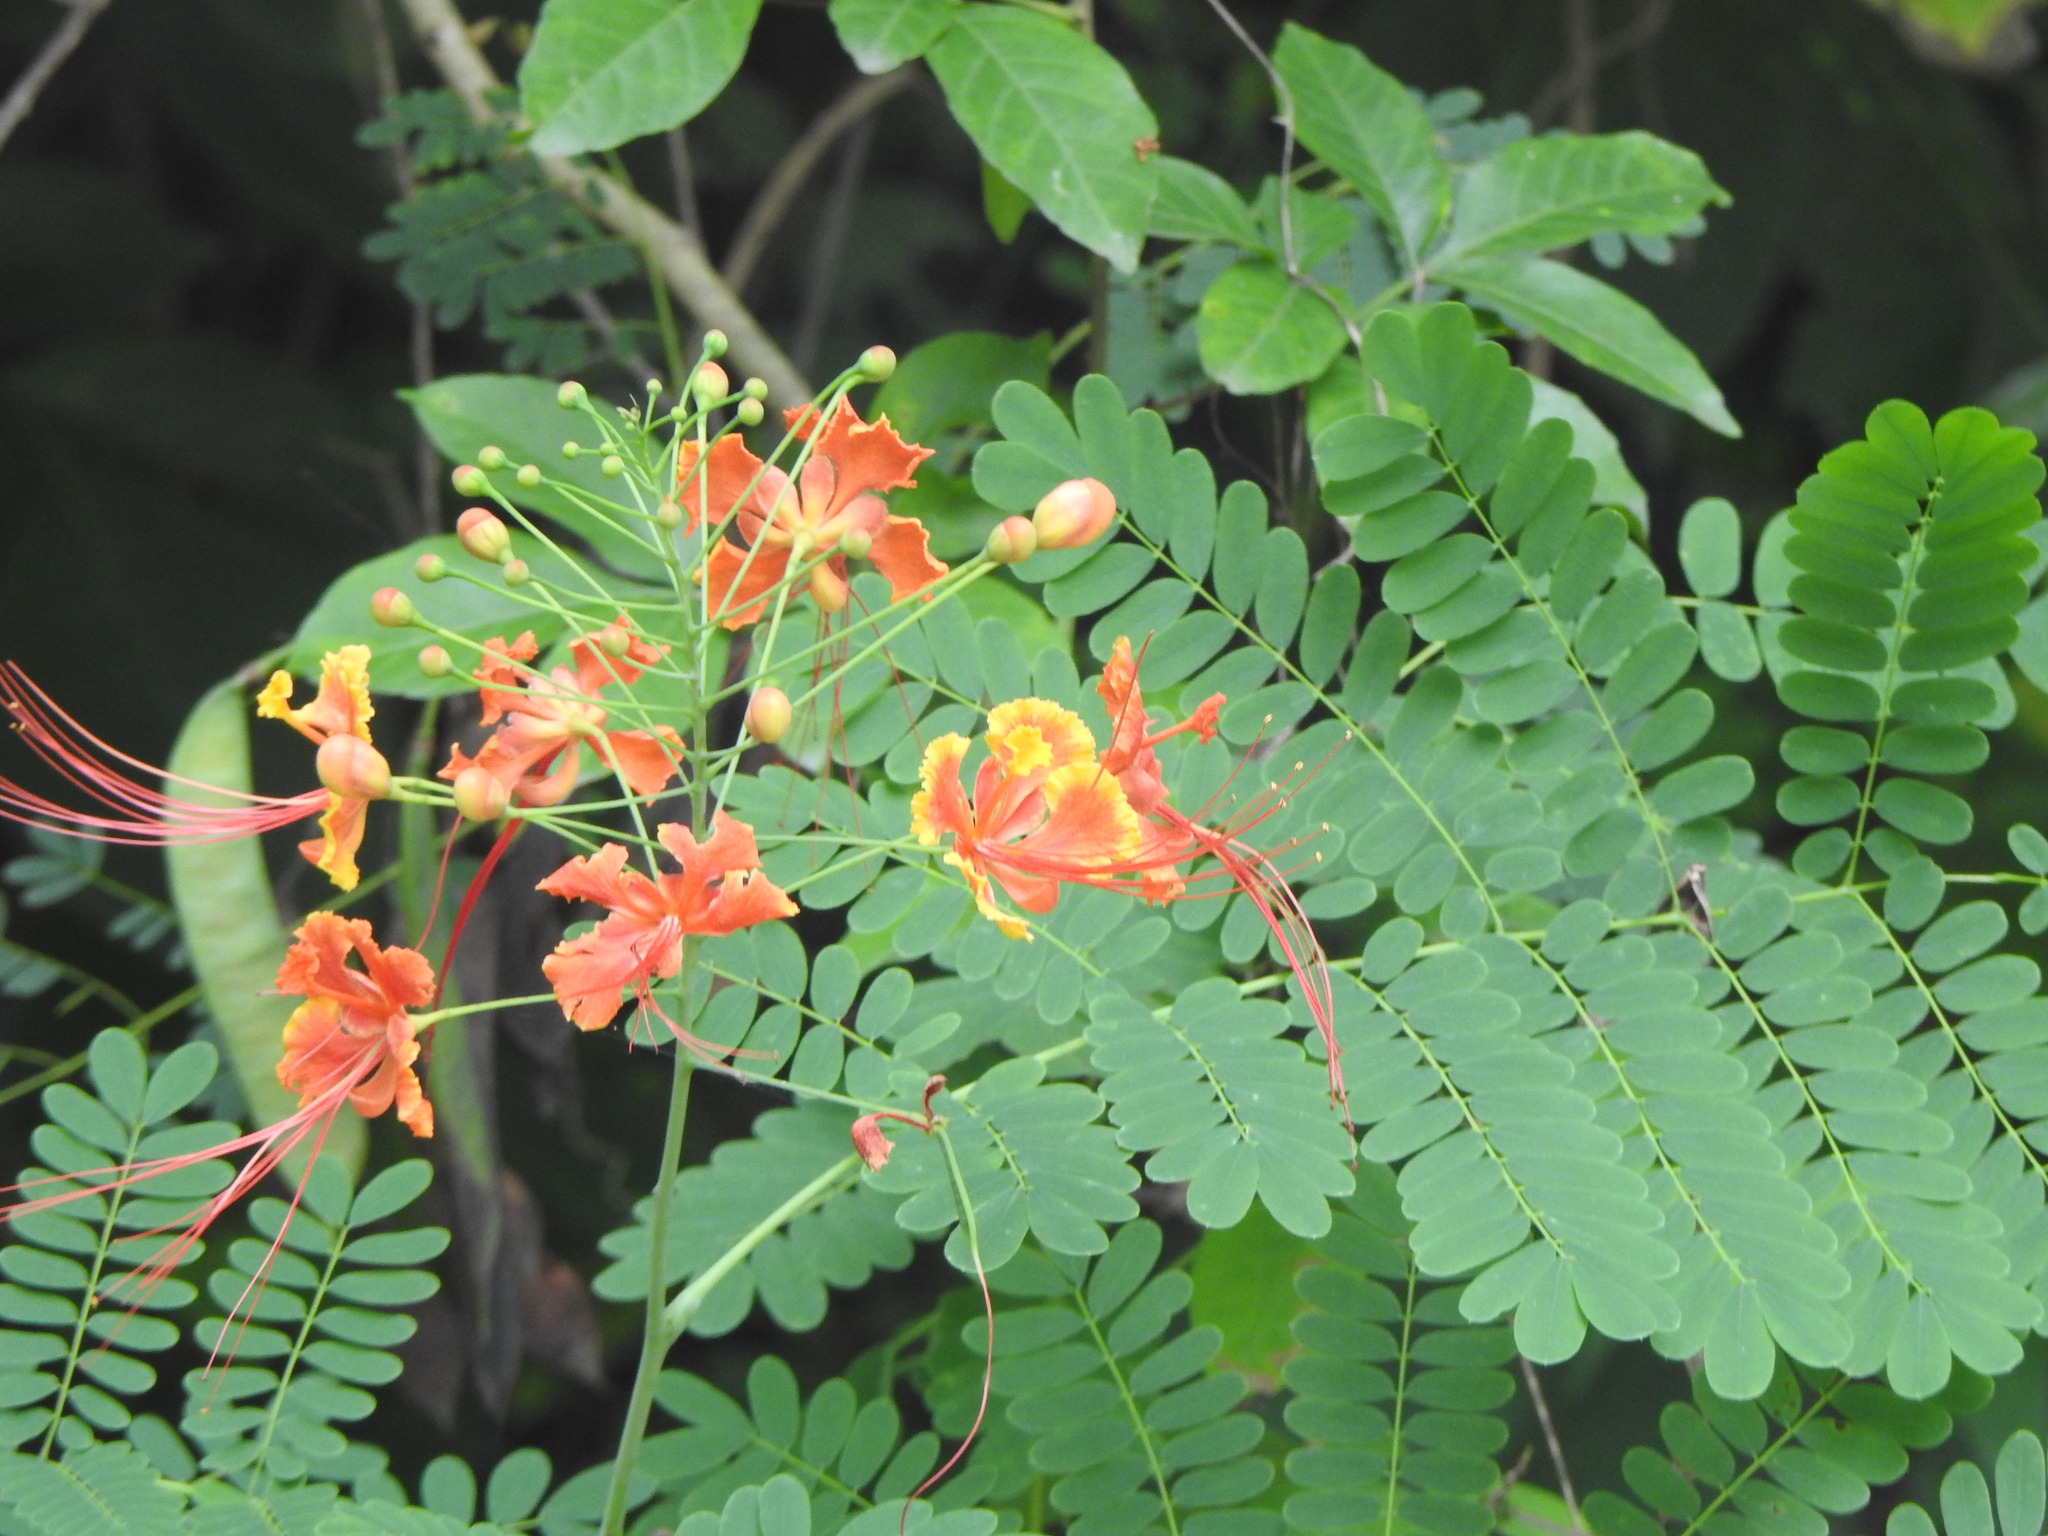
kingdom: Plantae
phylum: Tracheophyta
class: Magnoliopsida
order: Fabales
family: Fabaceae
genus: Caesalpinia
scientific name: Caesalpinia pulcherrima
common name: Pride-of-barbados
